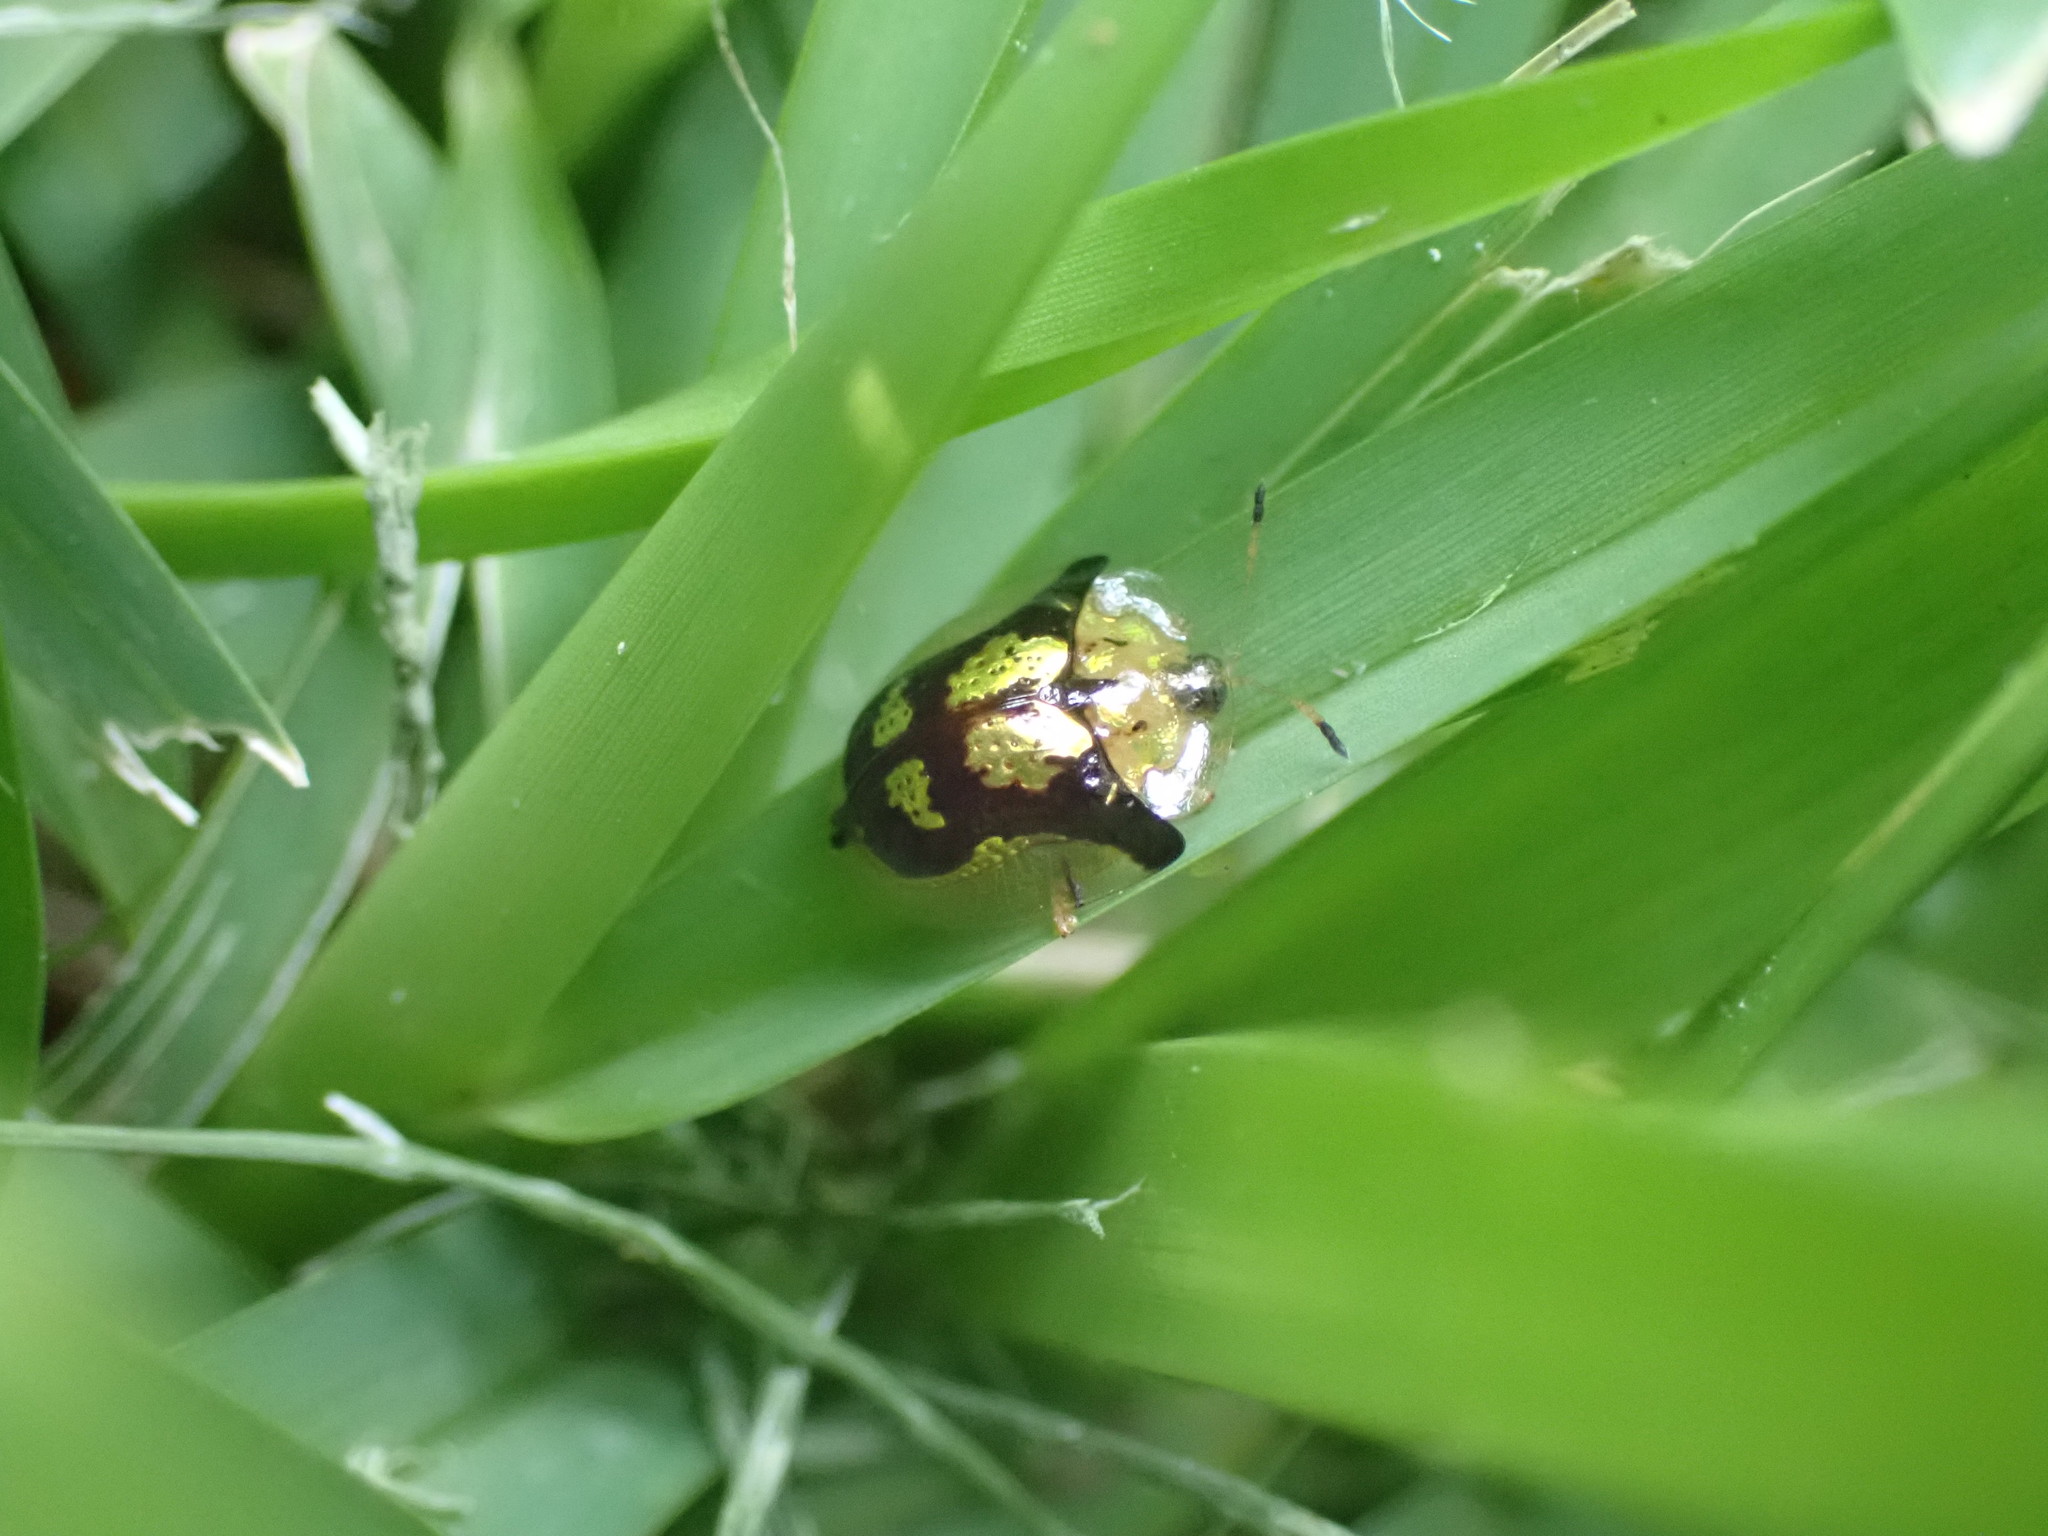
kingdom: Animalia
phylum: Arthropoda
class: Insecta
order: Coleoptera
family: Chrysomelidae
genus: Deloyala
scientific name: Deloyala guttata
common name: Mottled tortoise beetle
